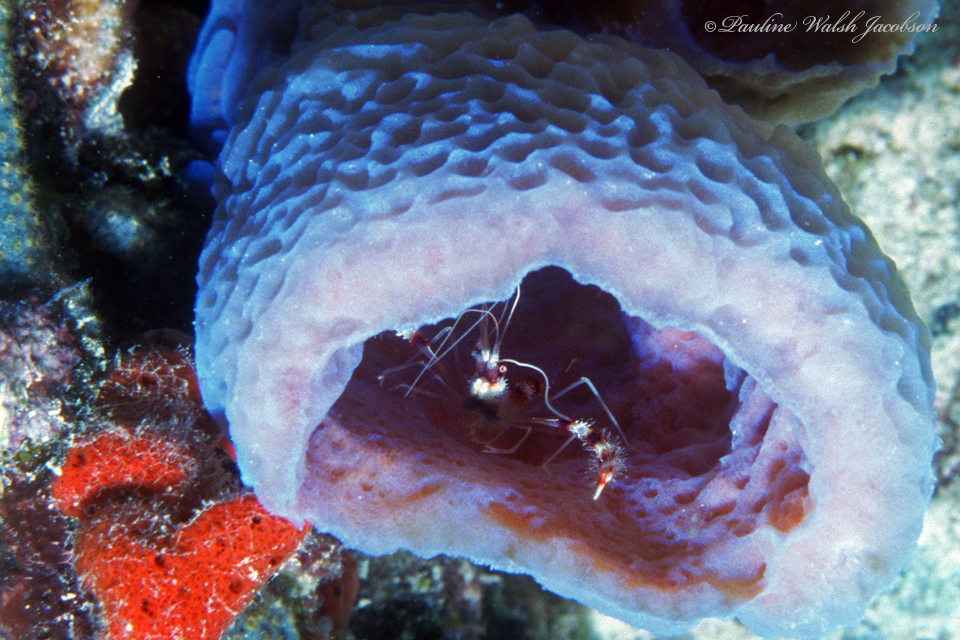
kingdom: Animalia
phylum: Porifera
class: Demospongiae
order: Haplosclerida
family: Callyspongiidae
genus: Callyspongia
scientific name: Callyspongia plicifera
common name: Azure vase sponge
